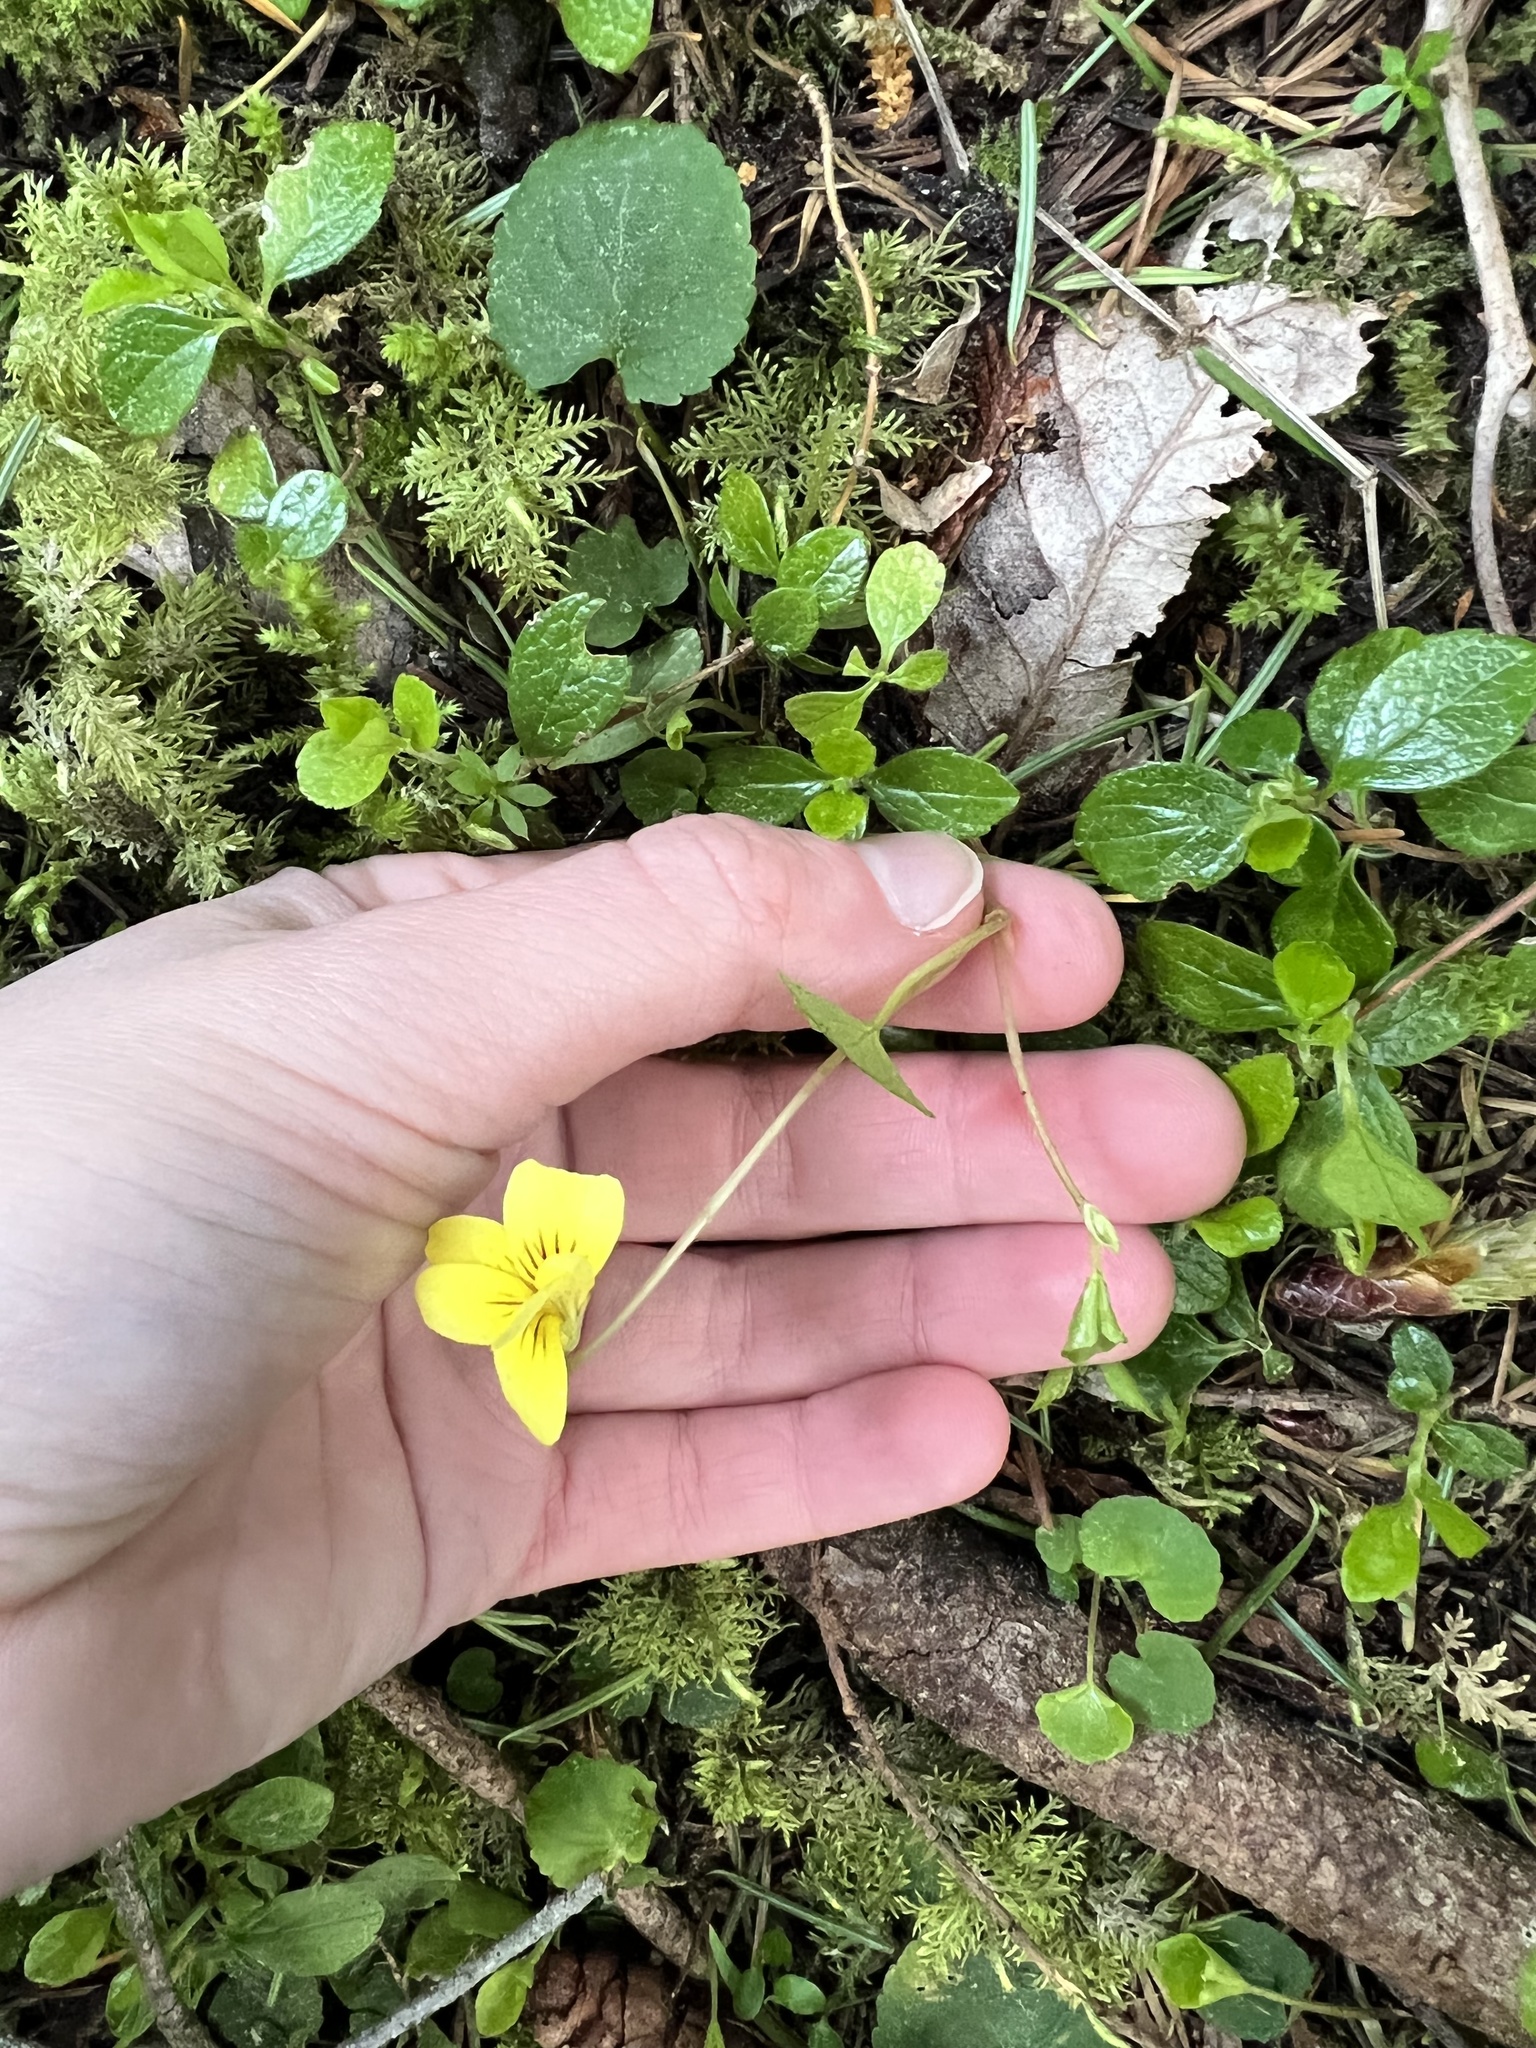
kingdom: Plantae
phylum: Tracheophyta
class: Magnoliopsida
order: Malpighiales
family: Violaceae
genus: Viola
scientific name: Viola sempervirens
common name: Evergreen violet
